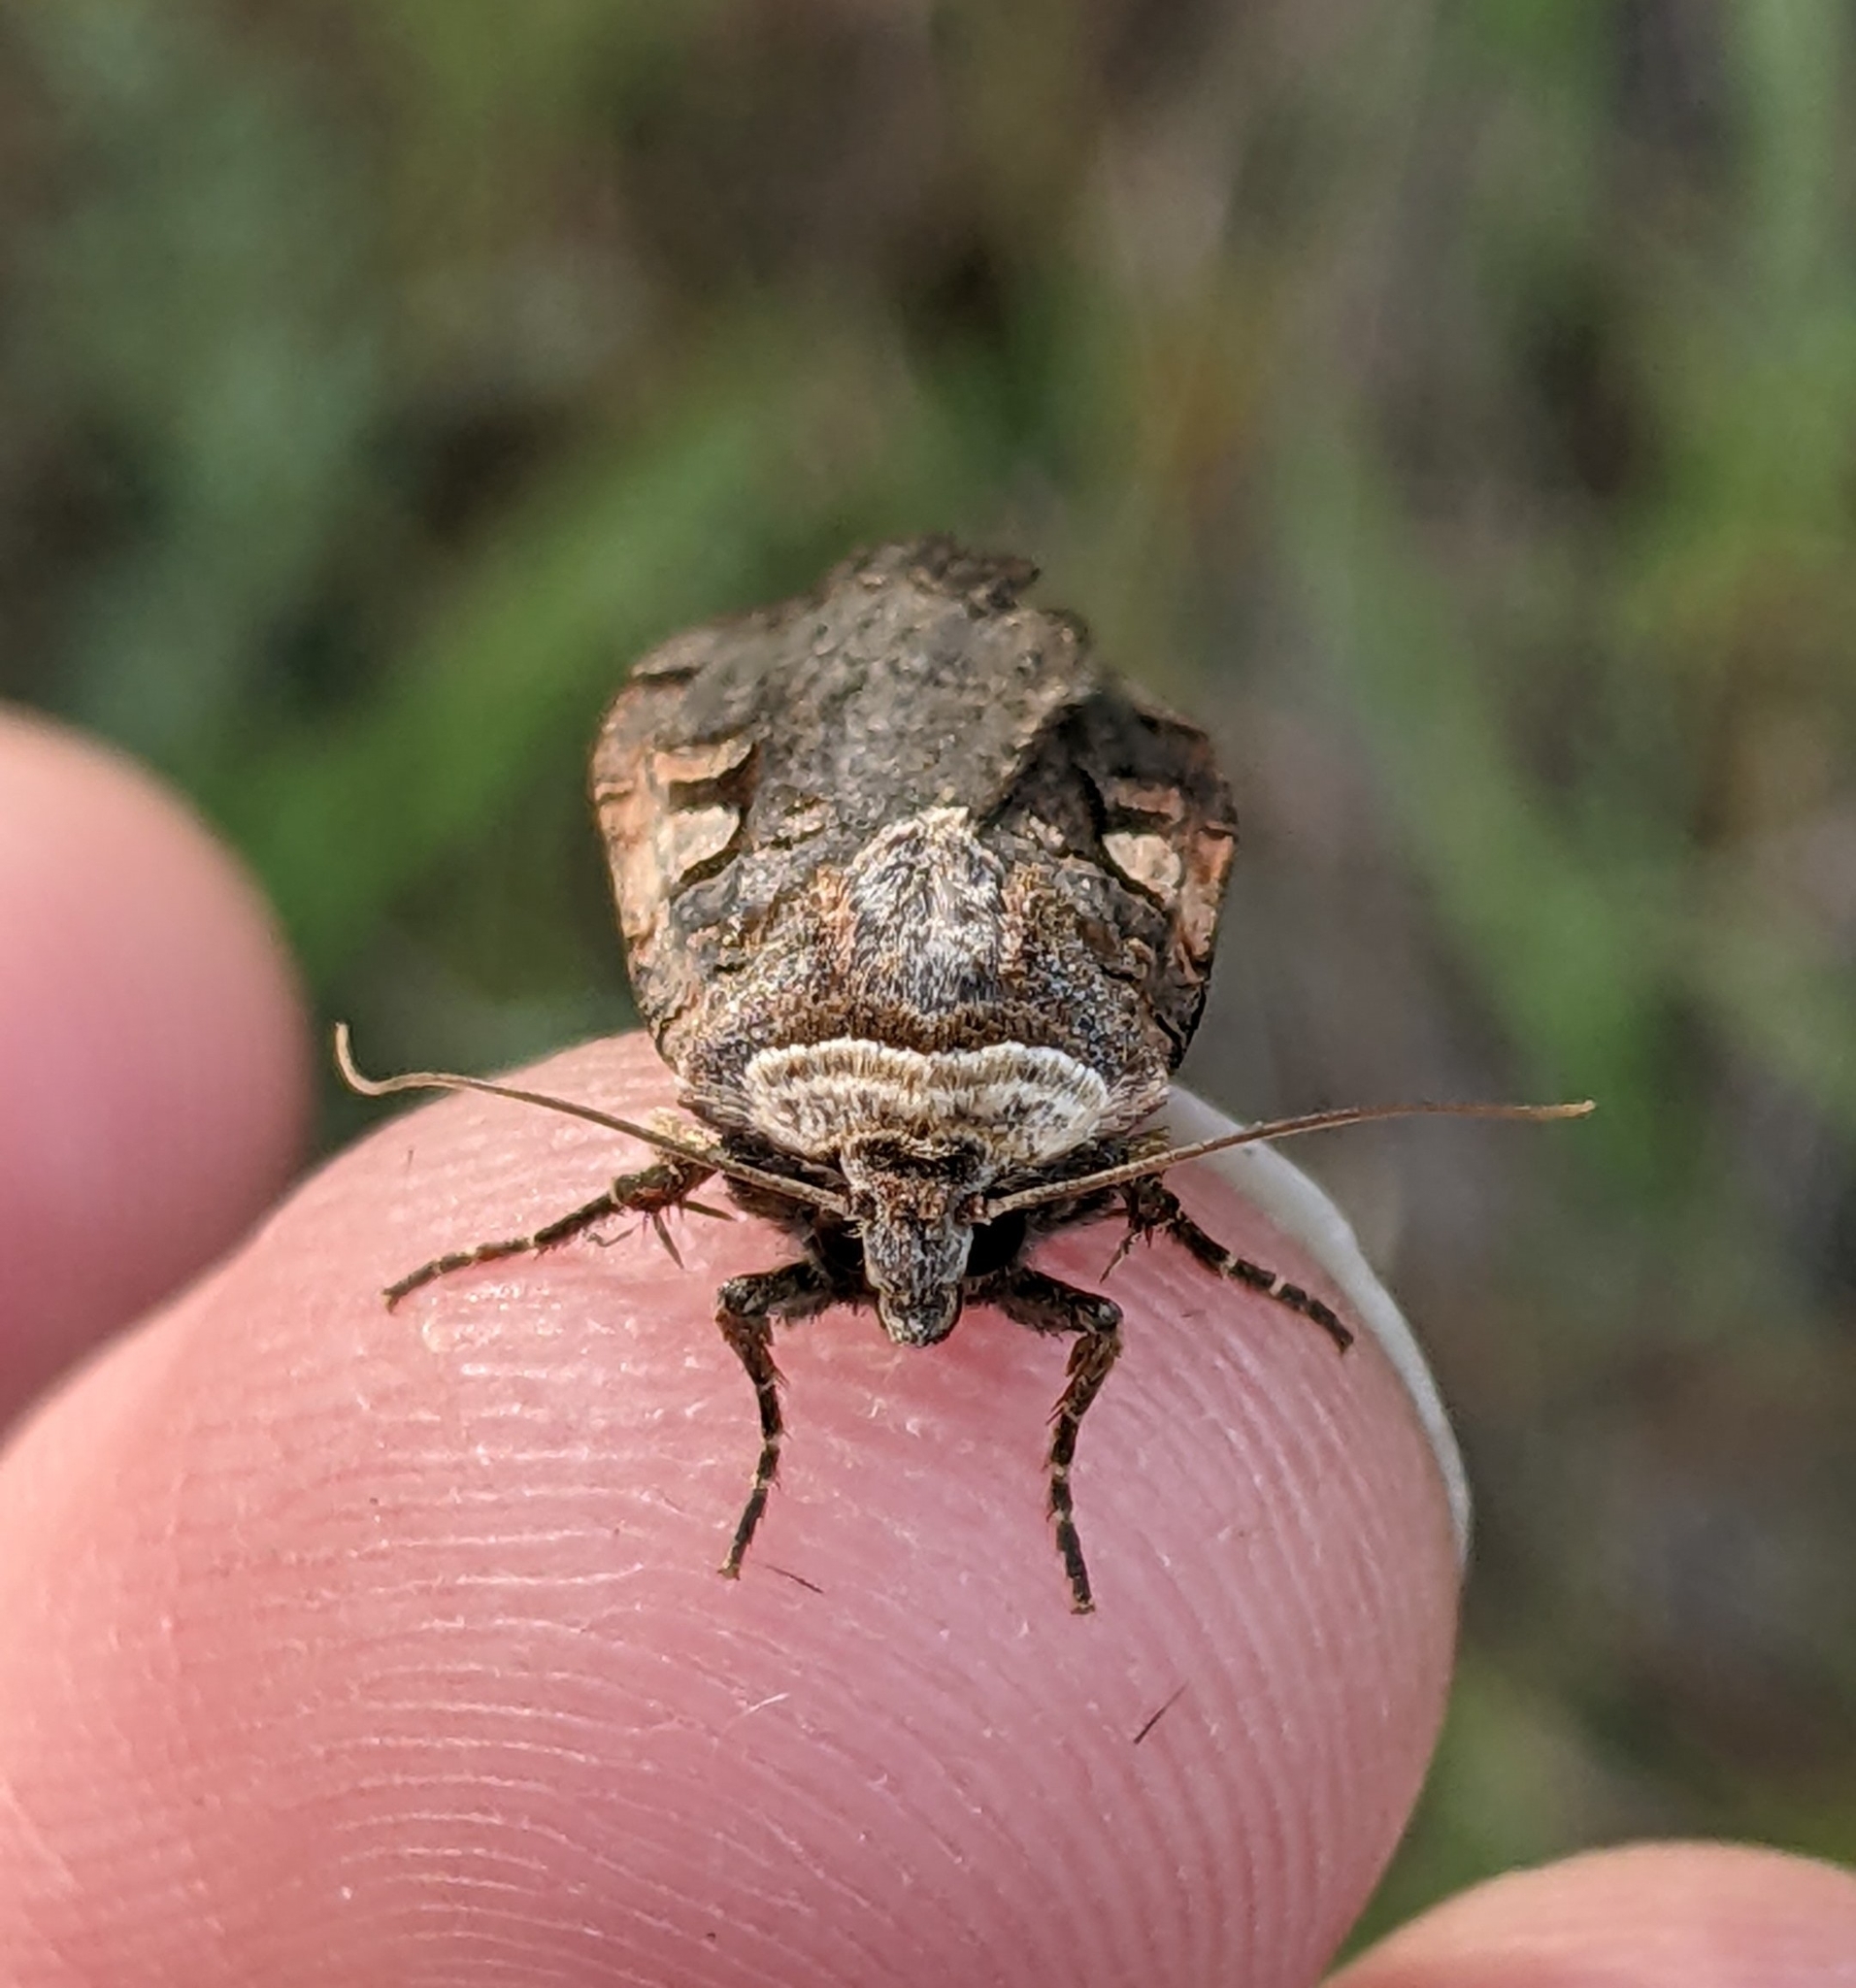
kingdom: Animalia
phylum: Arthropoda
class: Insecta
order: Lepidoptera
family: Noctuidae
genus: Xestia
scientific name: Xestia c-nigrum
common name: Setaceous hebrew character
